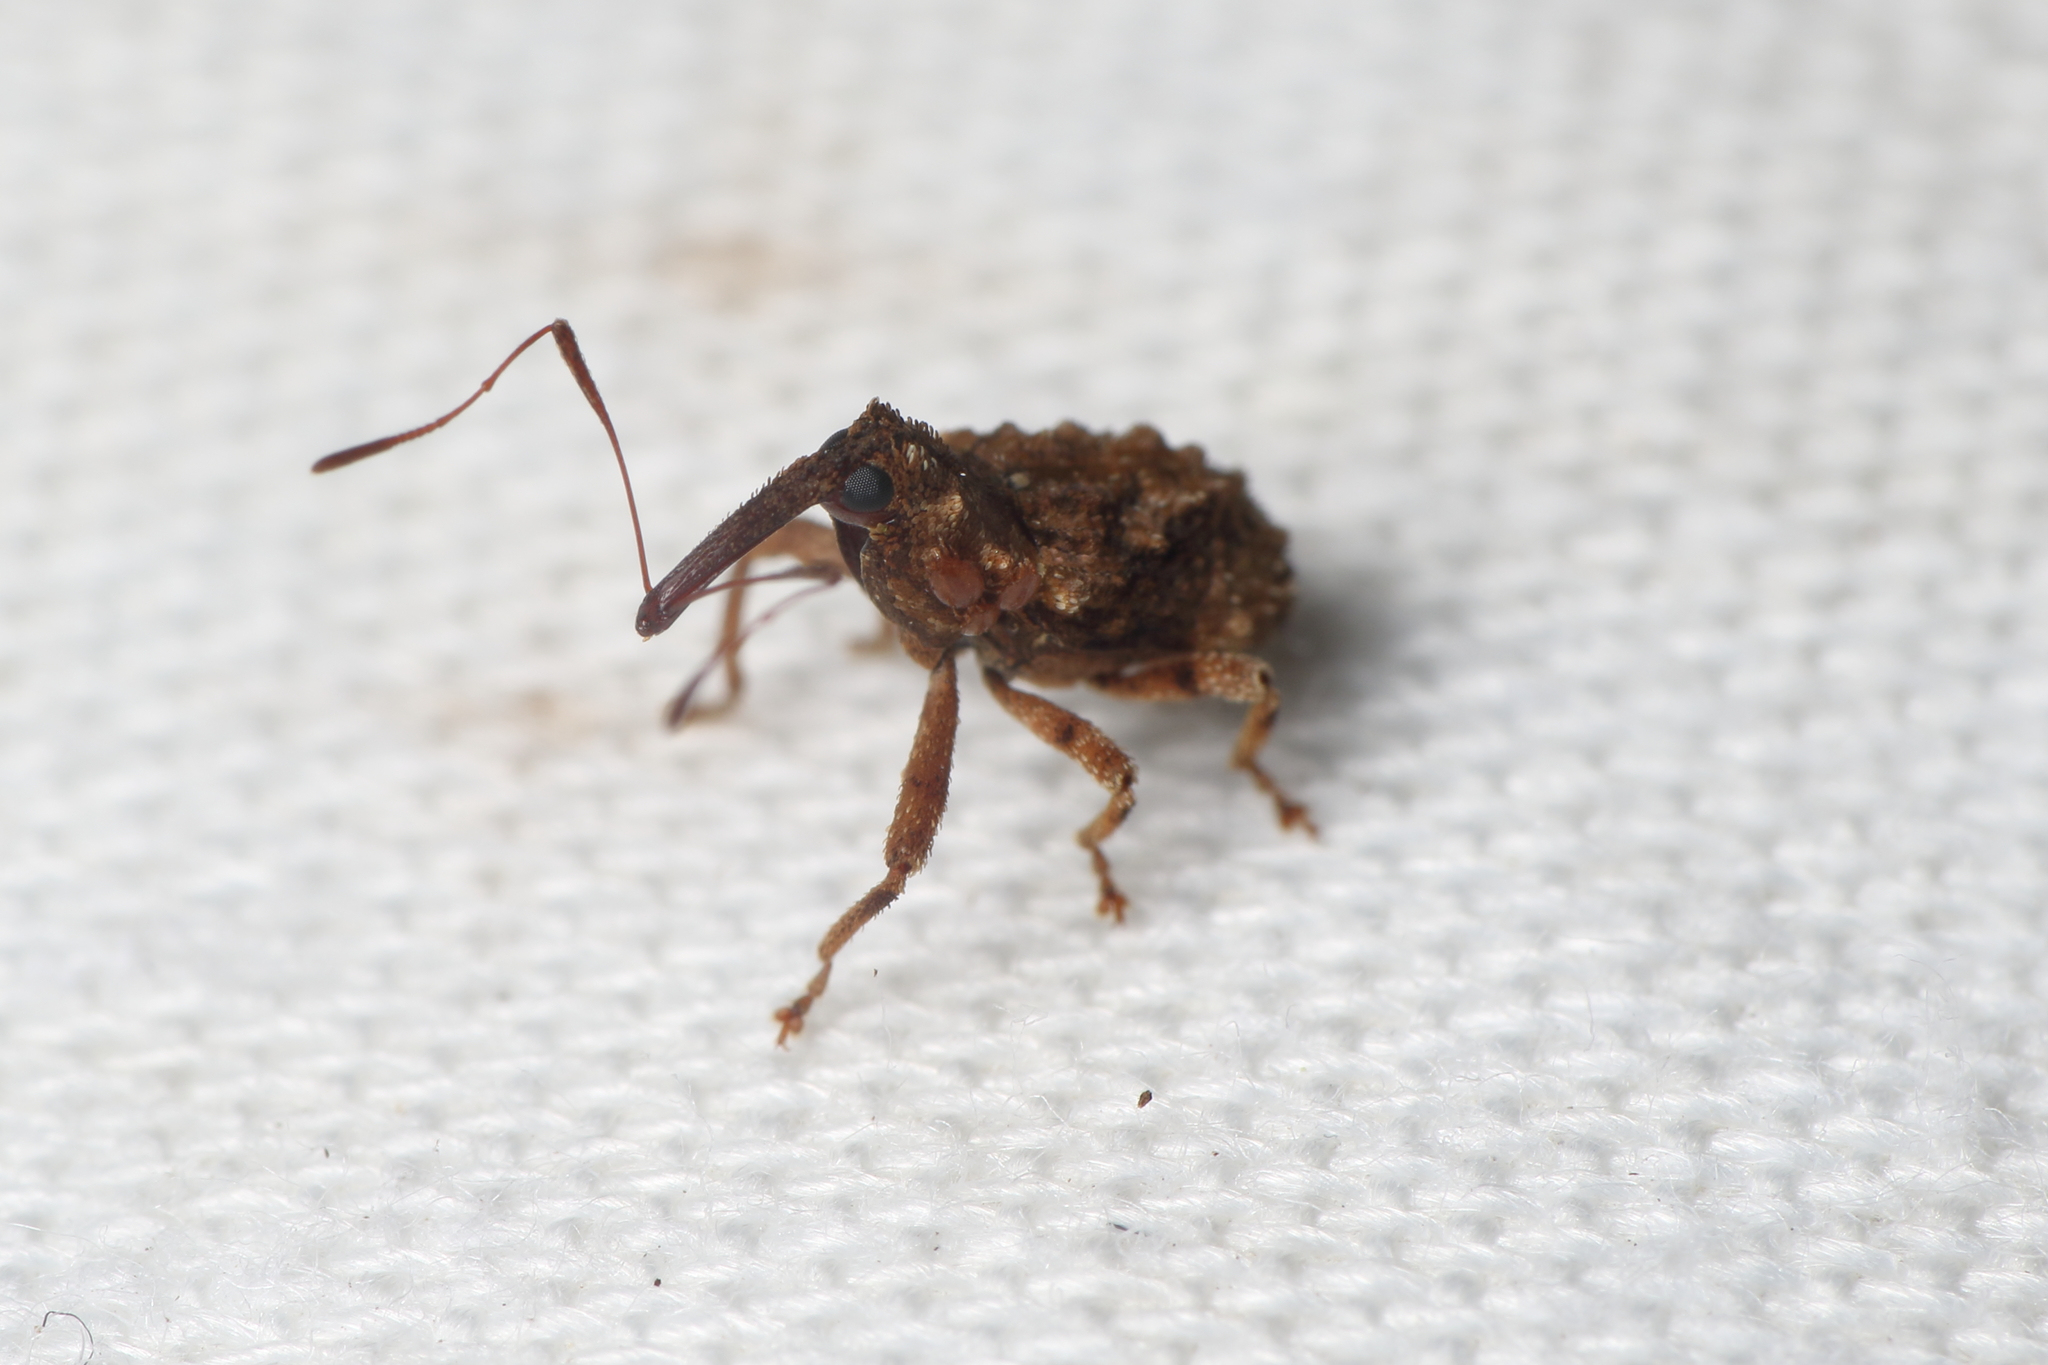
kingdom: Animalia
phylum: Arthropoda
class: Insecta
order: Coleoptera
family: Curculionidae
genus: Mecistostylus
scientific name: Mecistostylus douei
